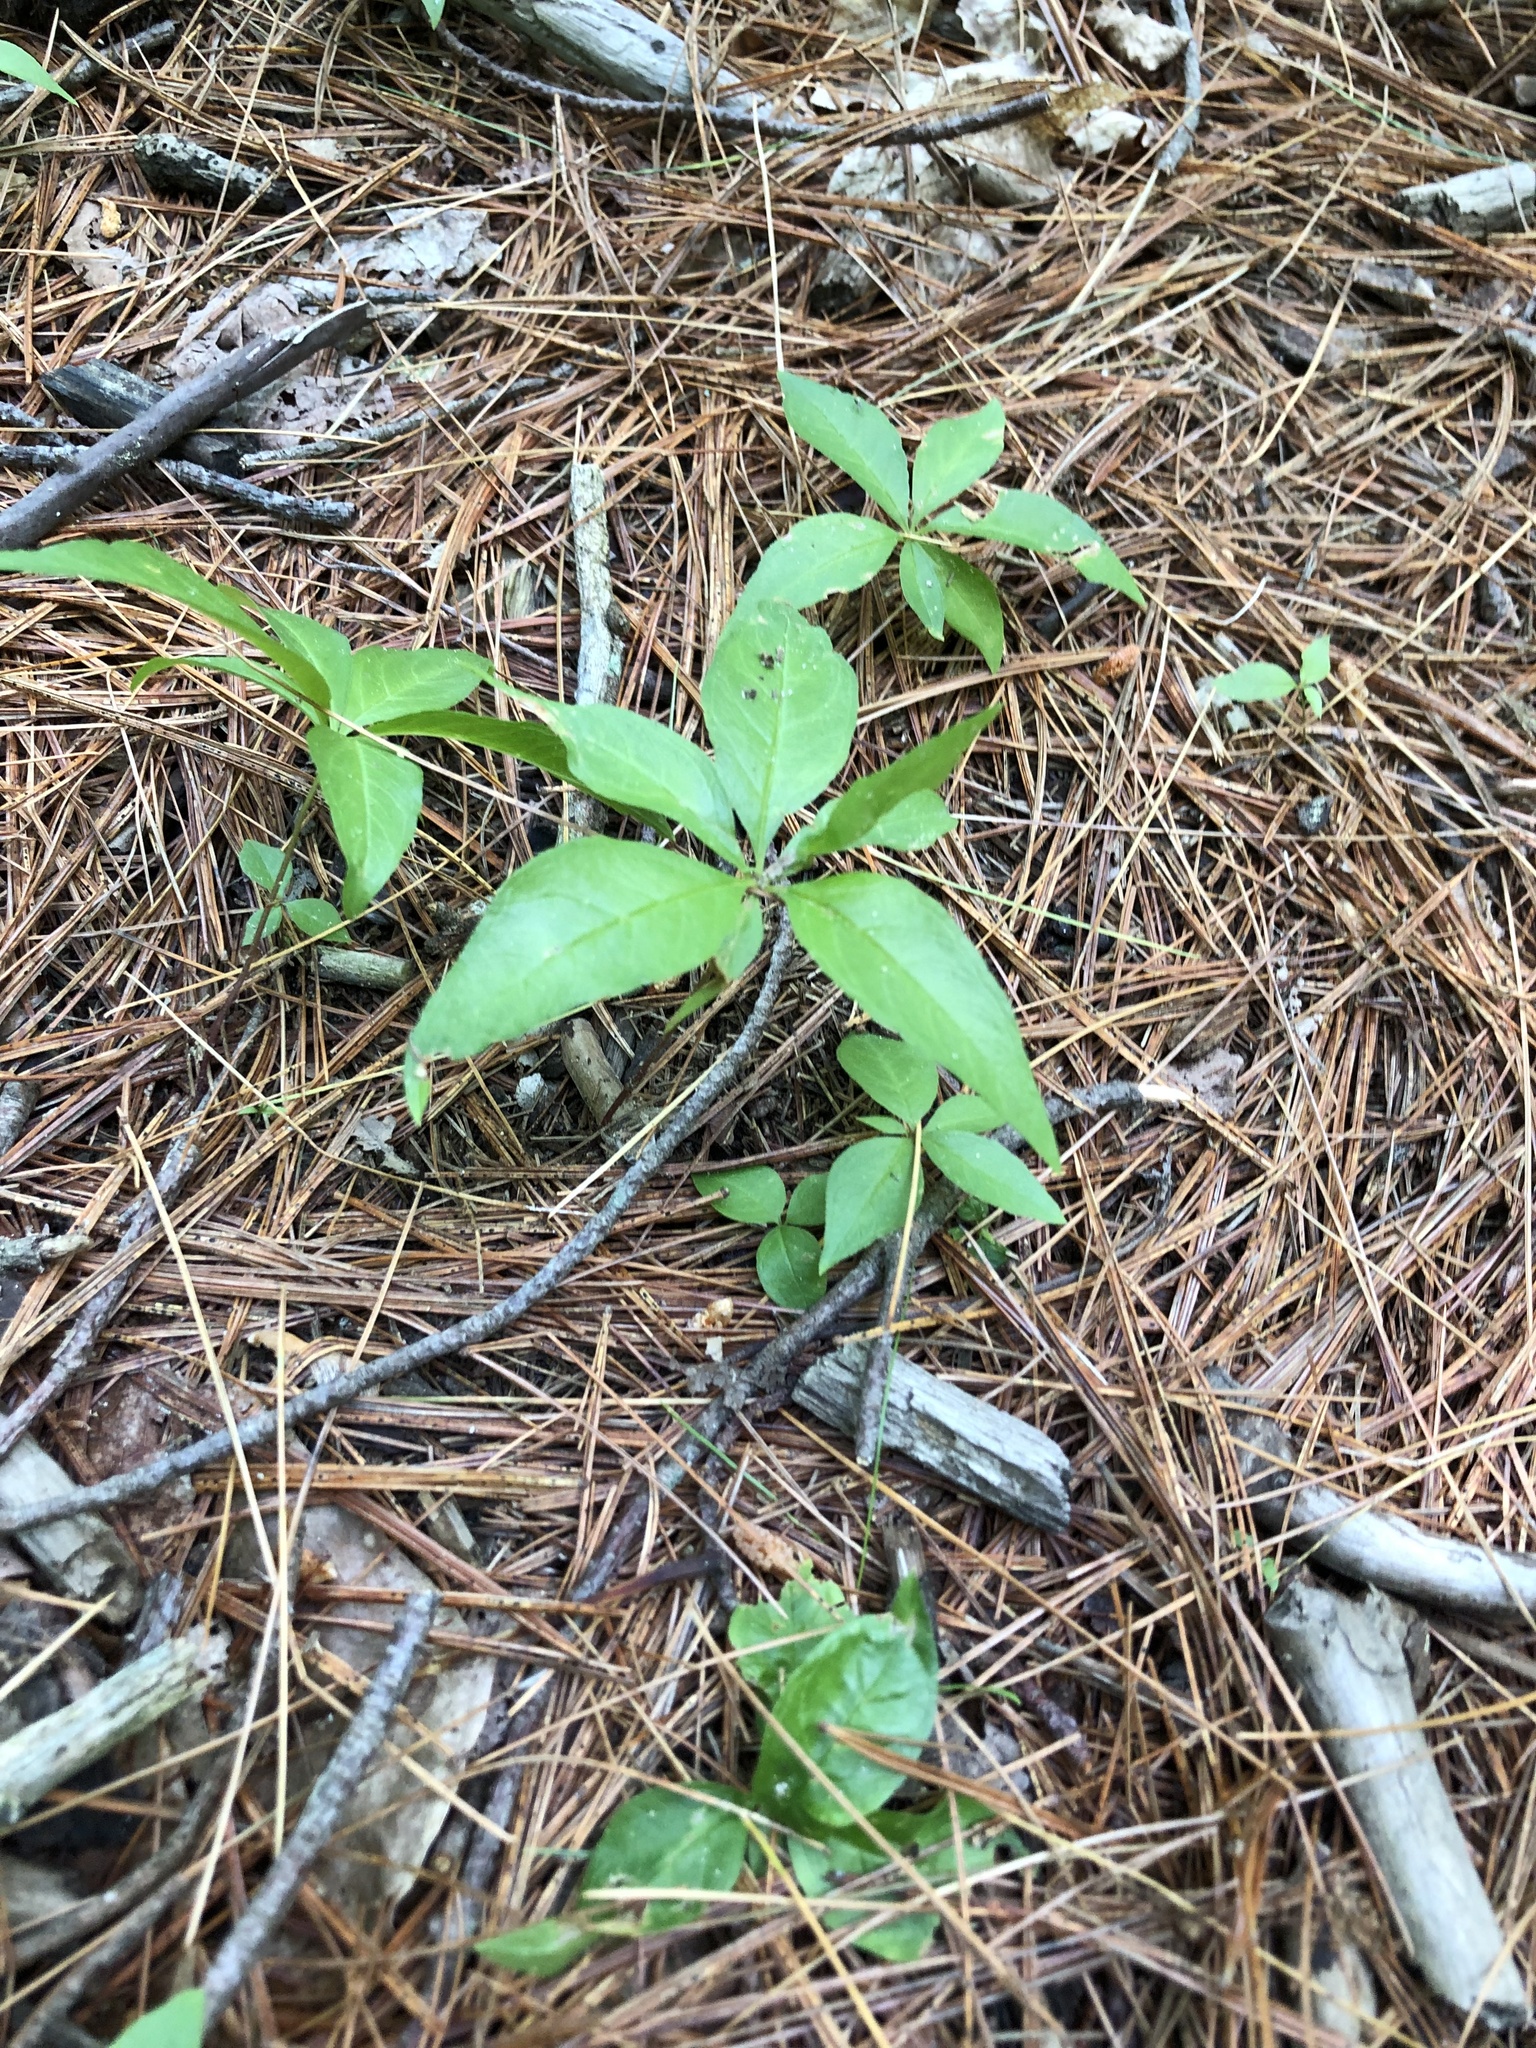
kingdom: Plantae
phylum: Tracheophyta
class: Magnoliopsida
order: Ericales
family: Primulaceae
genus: Lysimachia
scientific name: Lysimachia borealis
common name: American starflower
